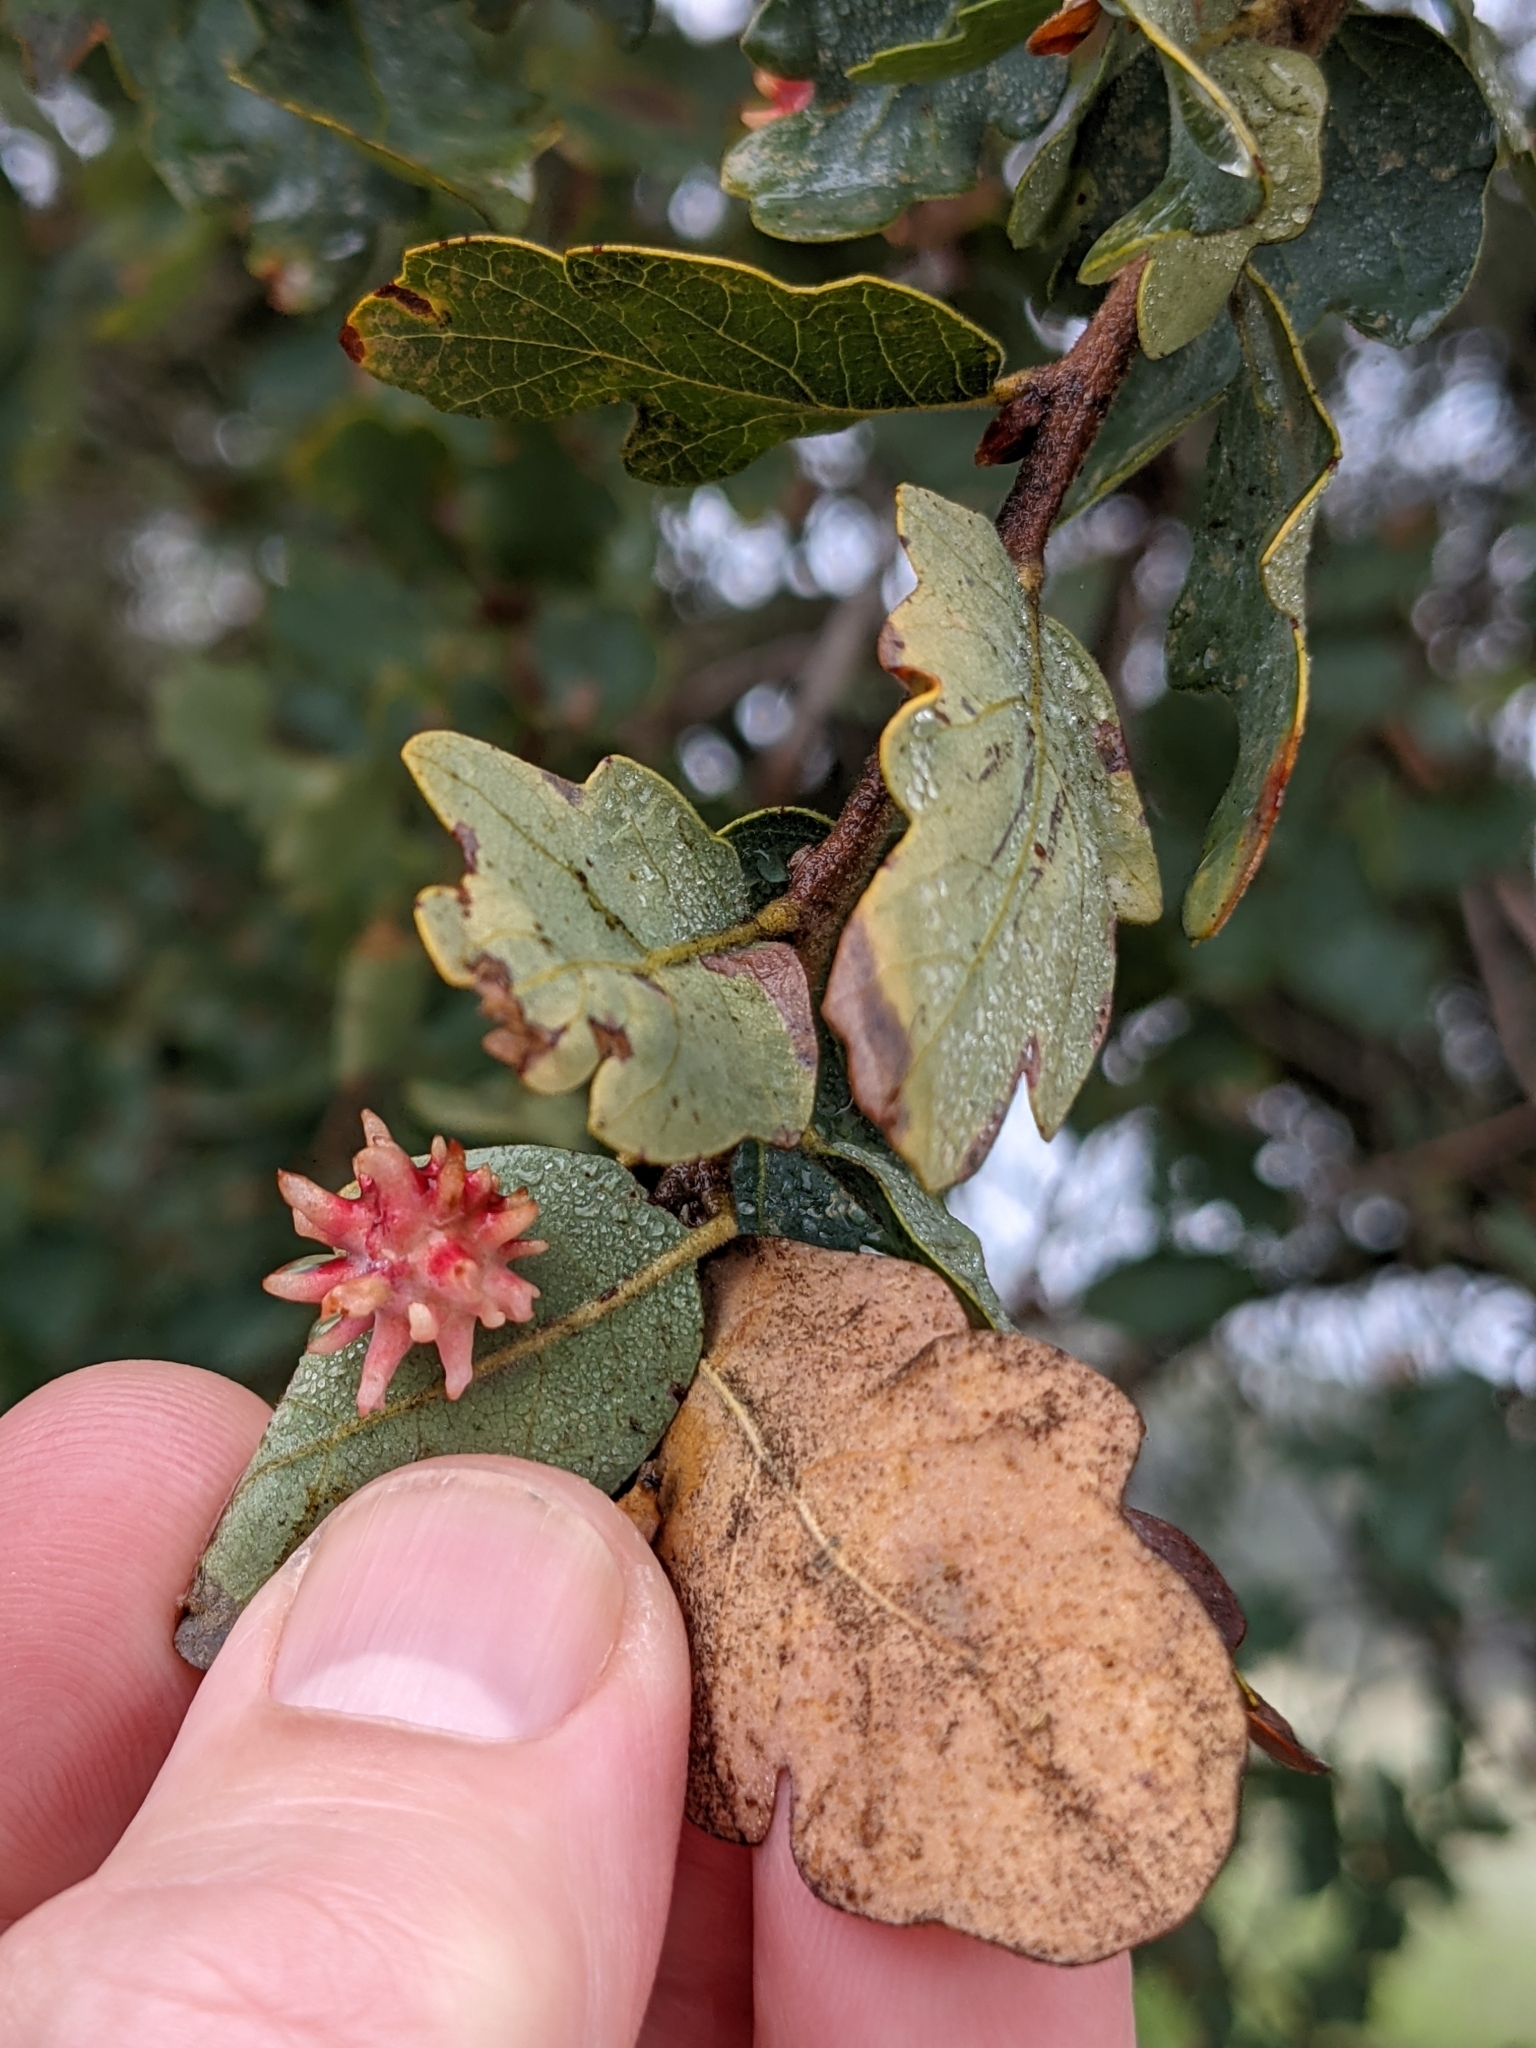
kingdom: Plantae
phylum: Tracheophyta
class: Magnoliopsida
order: Fagales
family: Fagaceae
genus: Quercus
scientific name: Quercus douglasii
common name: Blue oak
